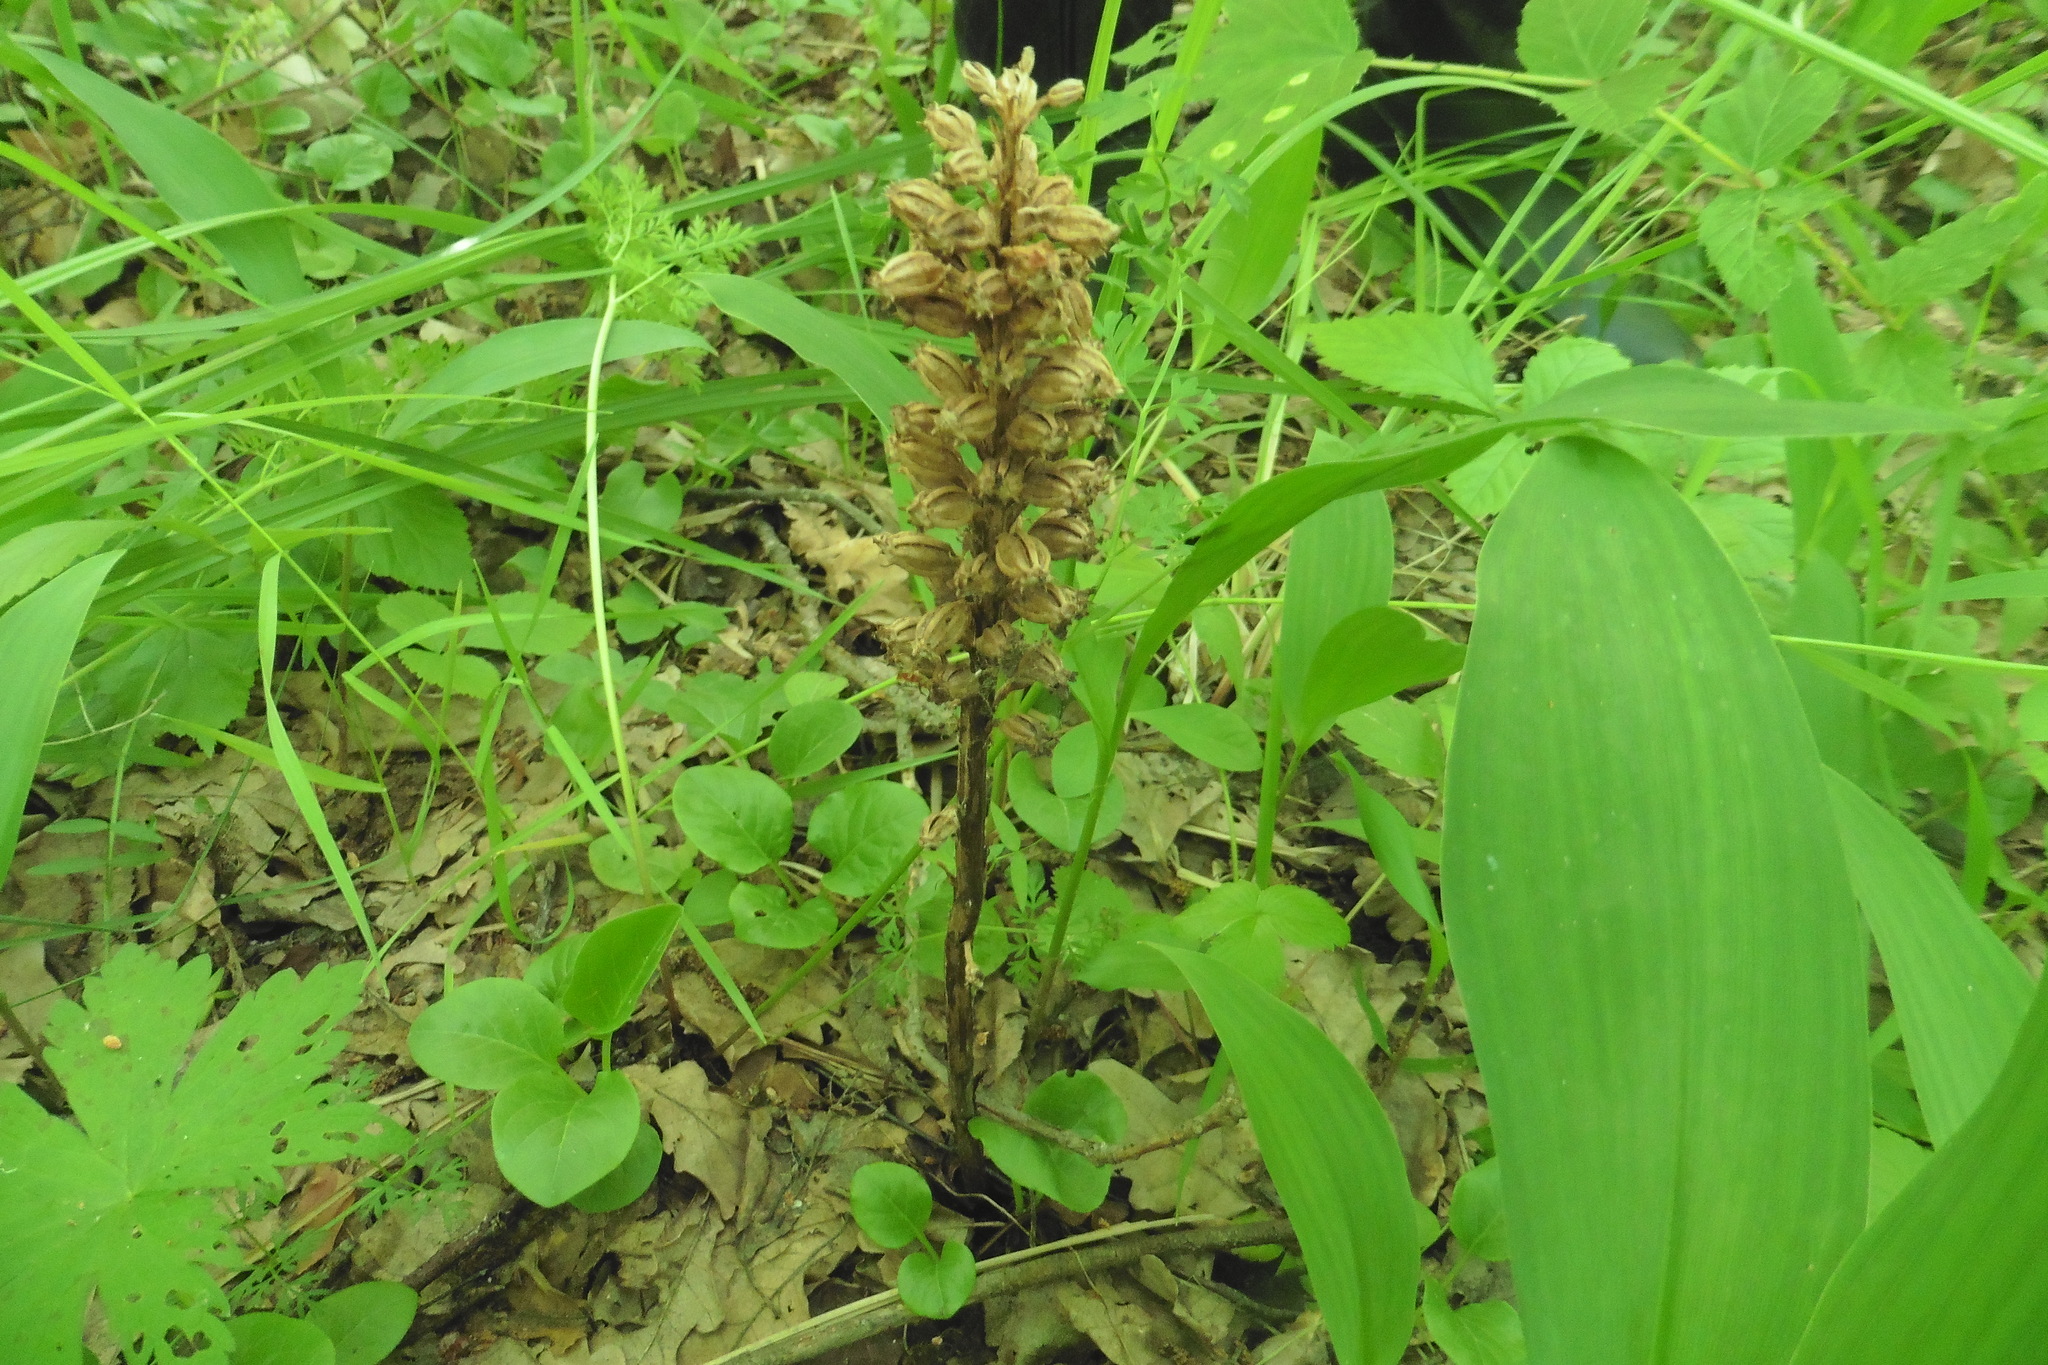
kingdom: Plantae
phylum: Tracheophyta
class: Liliopsida
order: Asparagales
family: Orchidaceae
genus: Neottia
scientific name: Neottia nidus-avis
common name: Bird's-nest orchid
